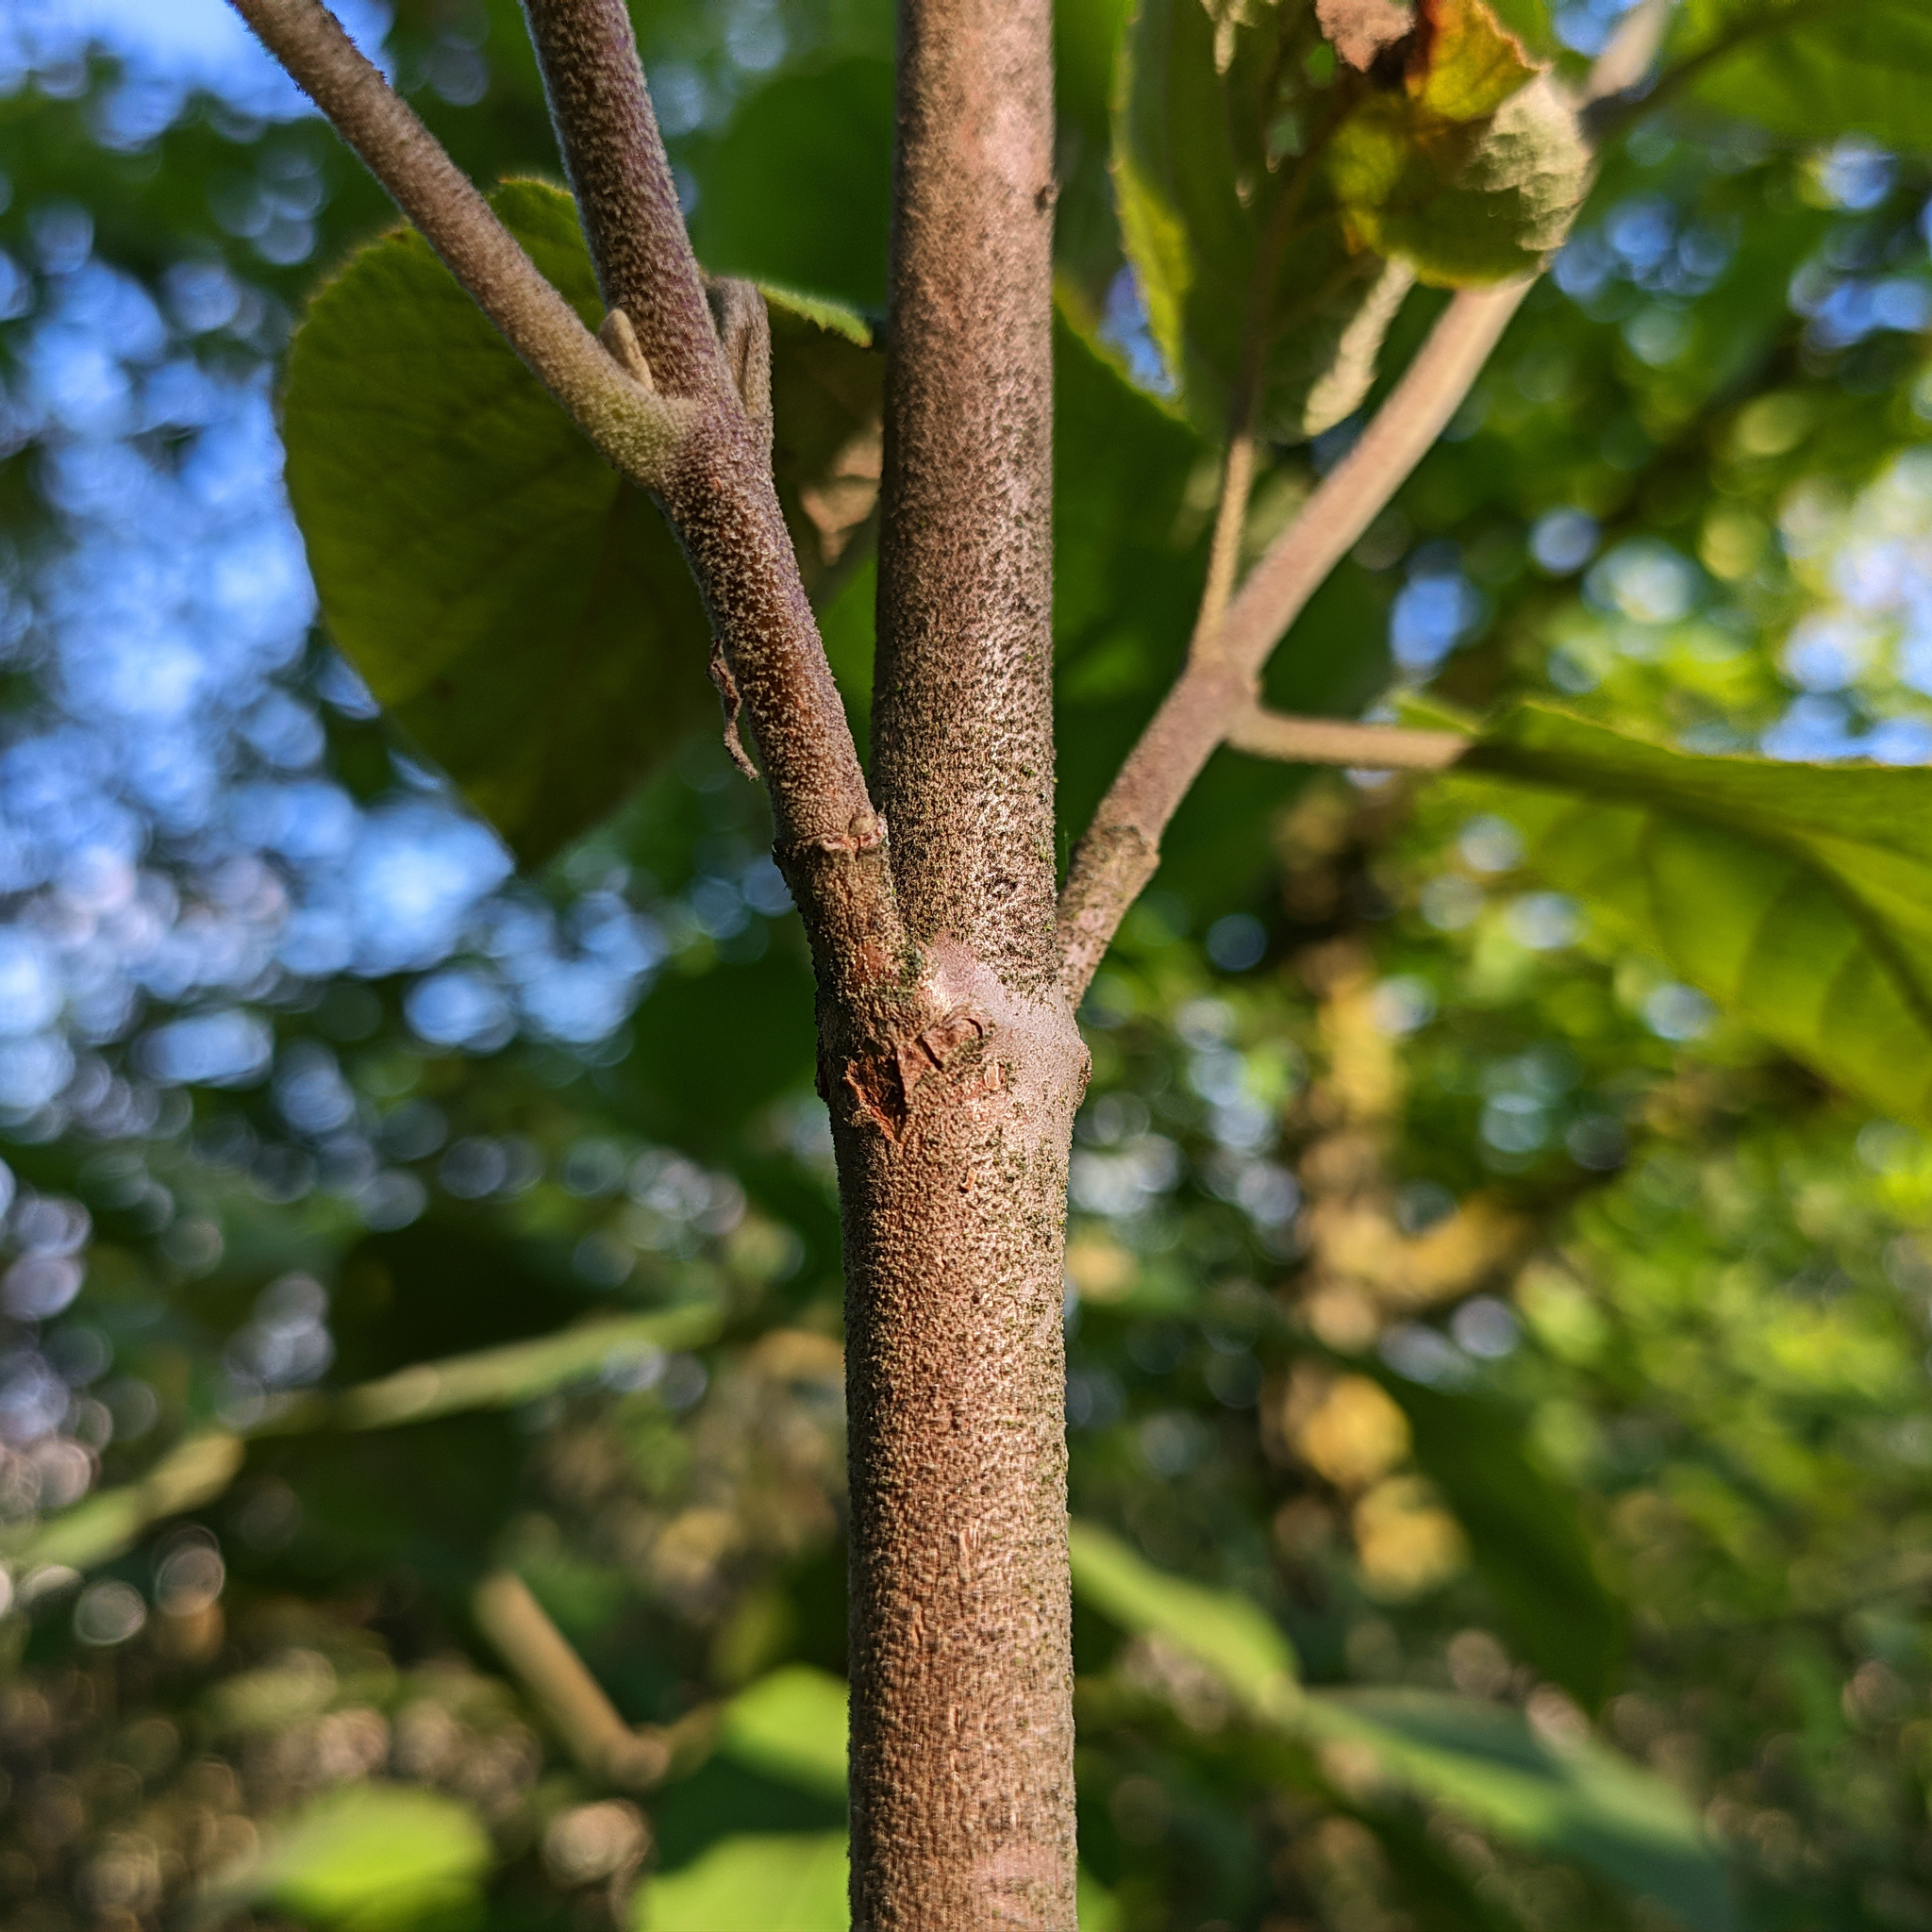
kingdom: Plantae
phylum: Tracheophyta
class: Magnoliopsida
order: Dipsacales
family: Viburnaceae
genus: Viburnum
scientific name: Viburnum lantana
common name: Wayfaring tree
